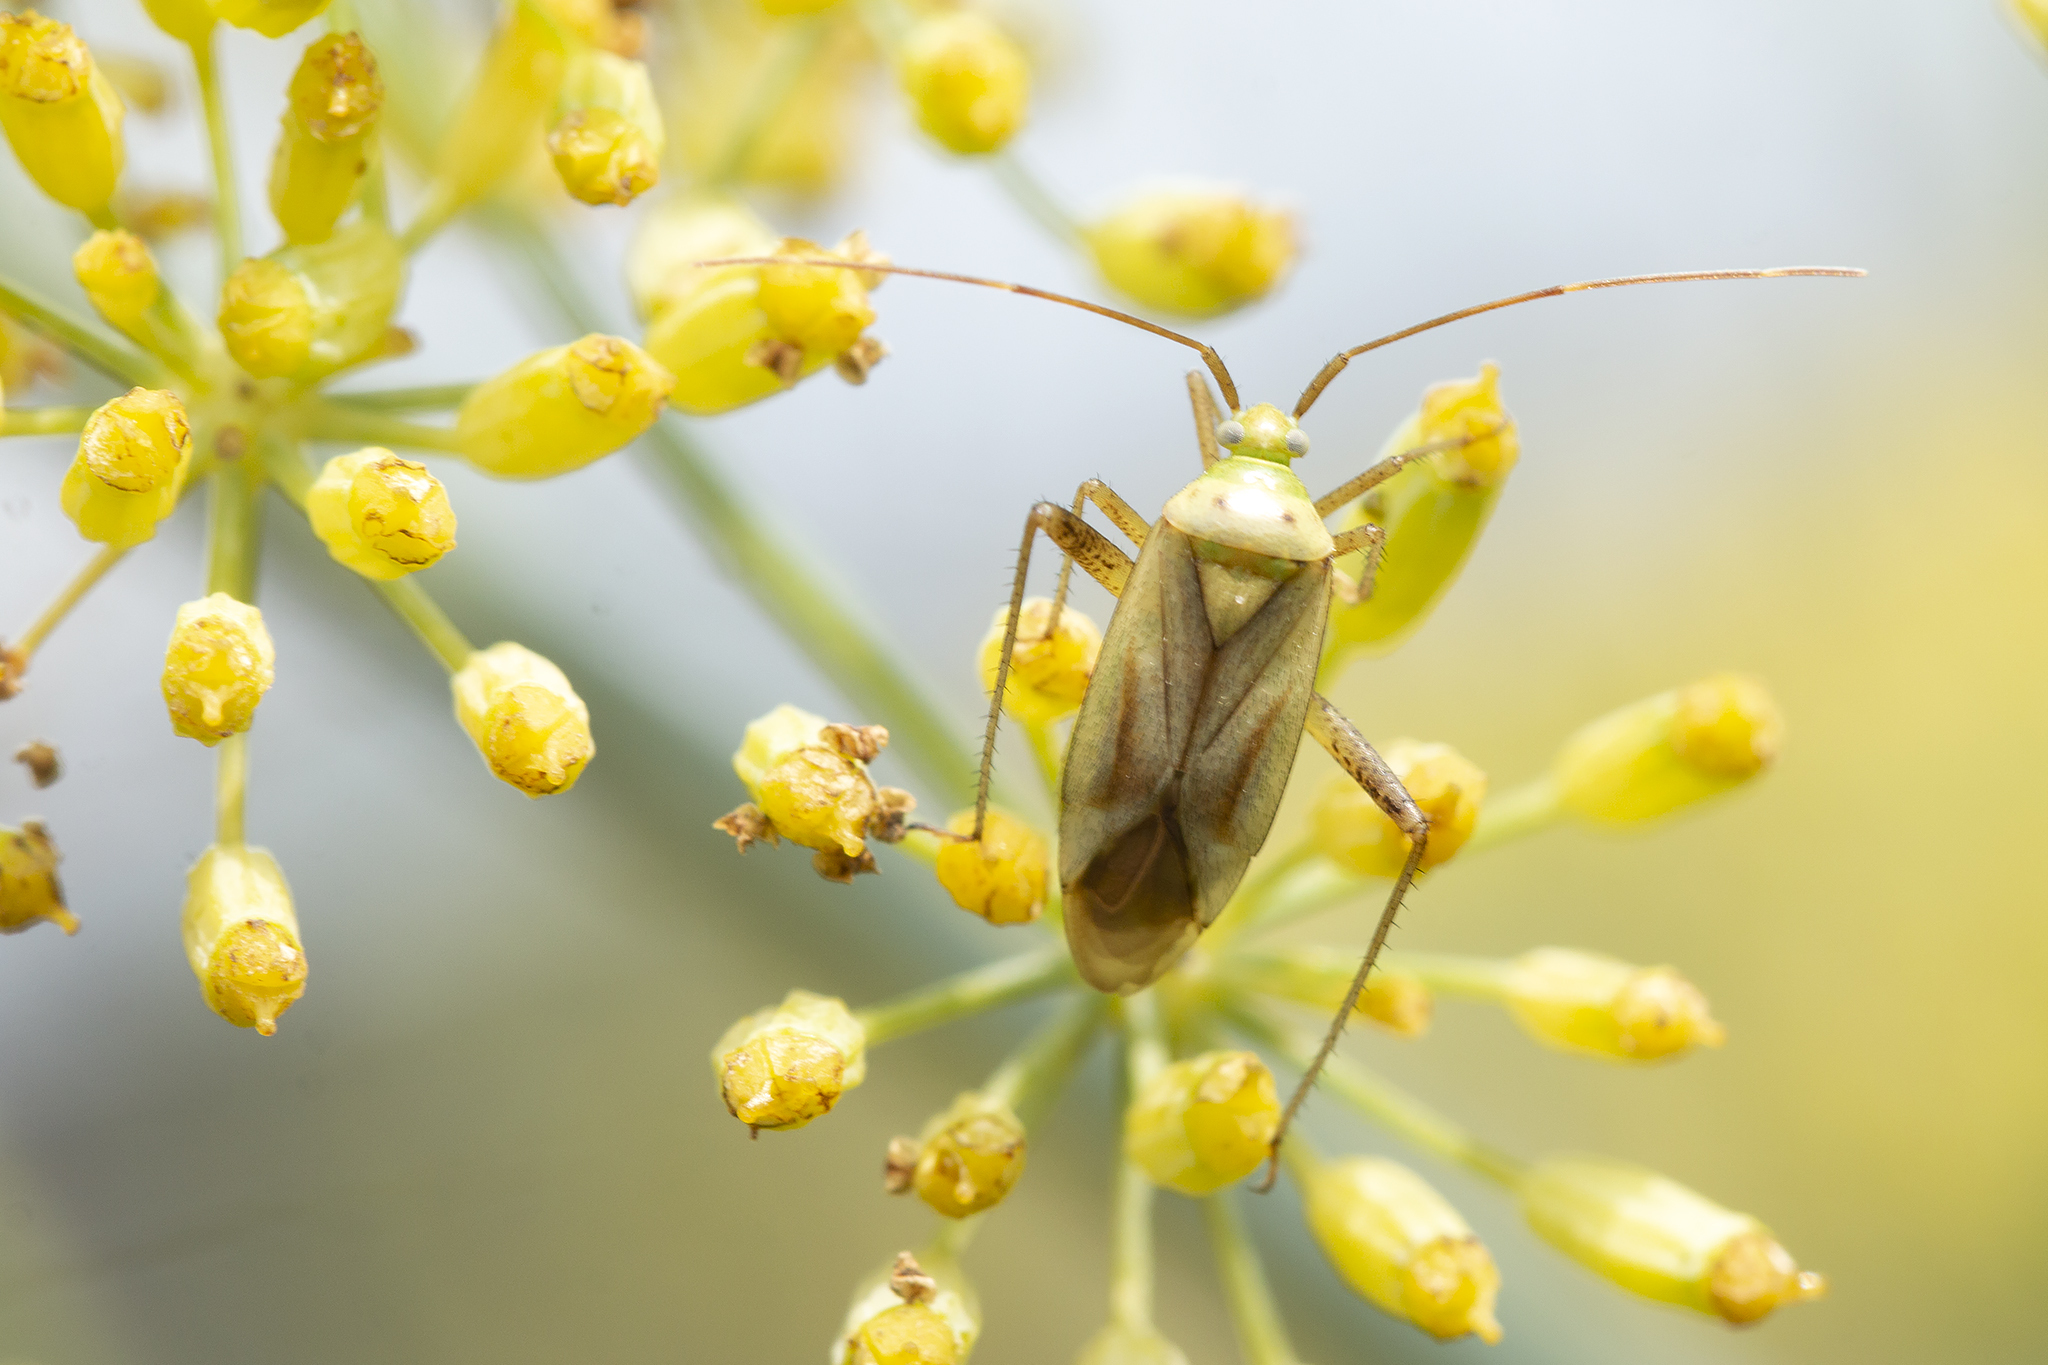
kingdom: Animalia
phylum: Arthropoda
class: Insecta
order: Hemiptera
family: Miridae
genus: Adelphocoris
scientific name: Adelphocoris quadripunctatus
